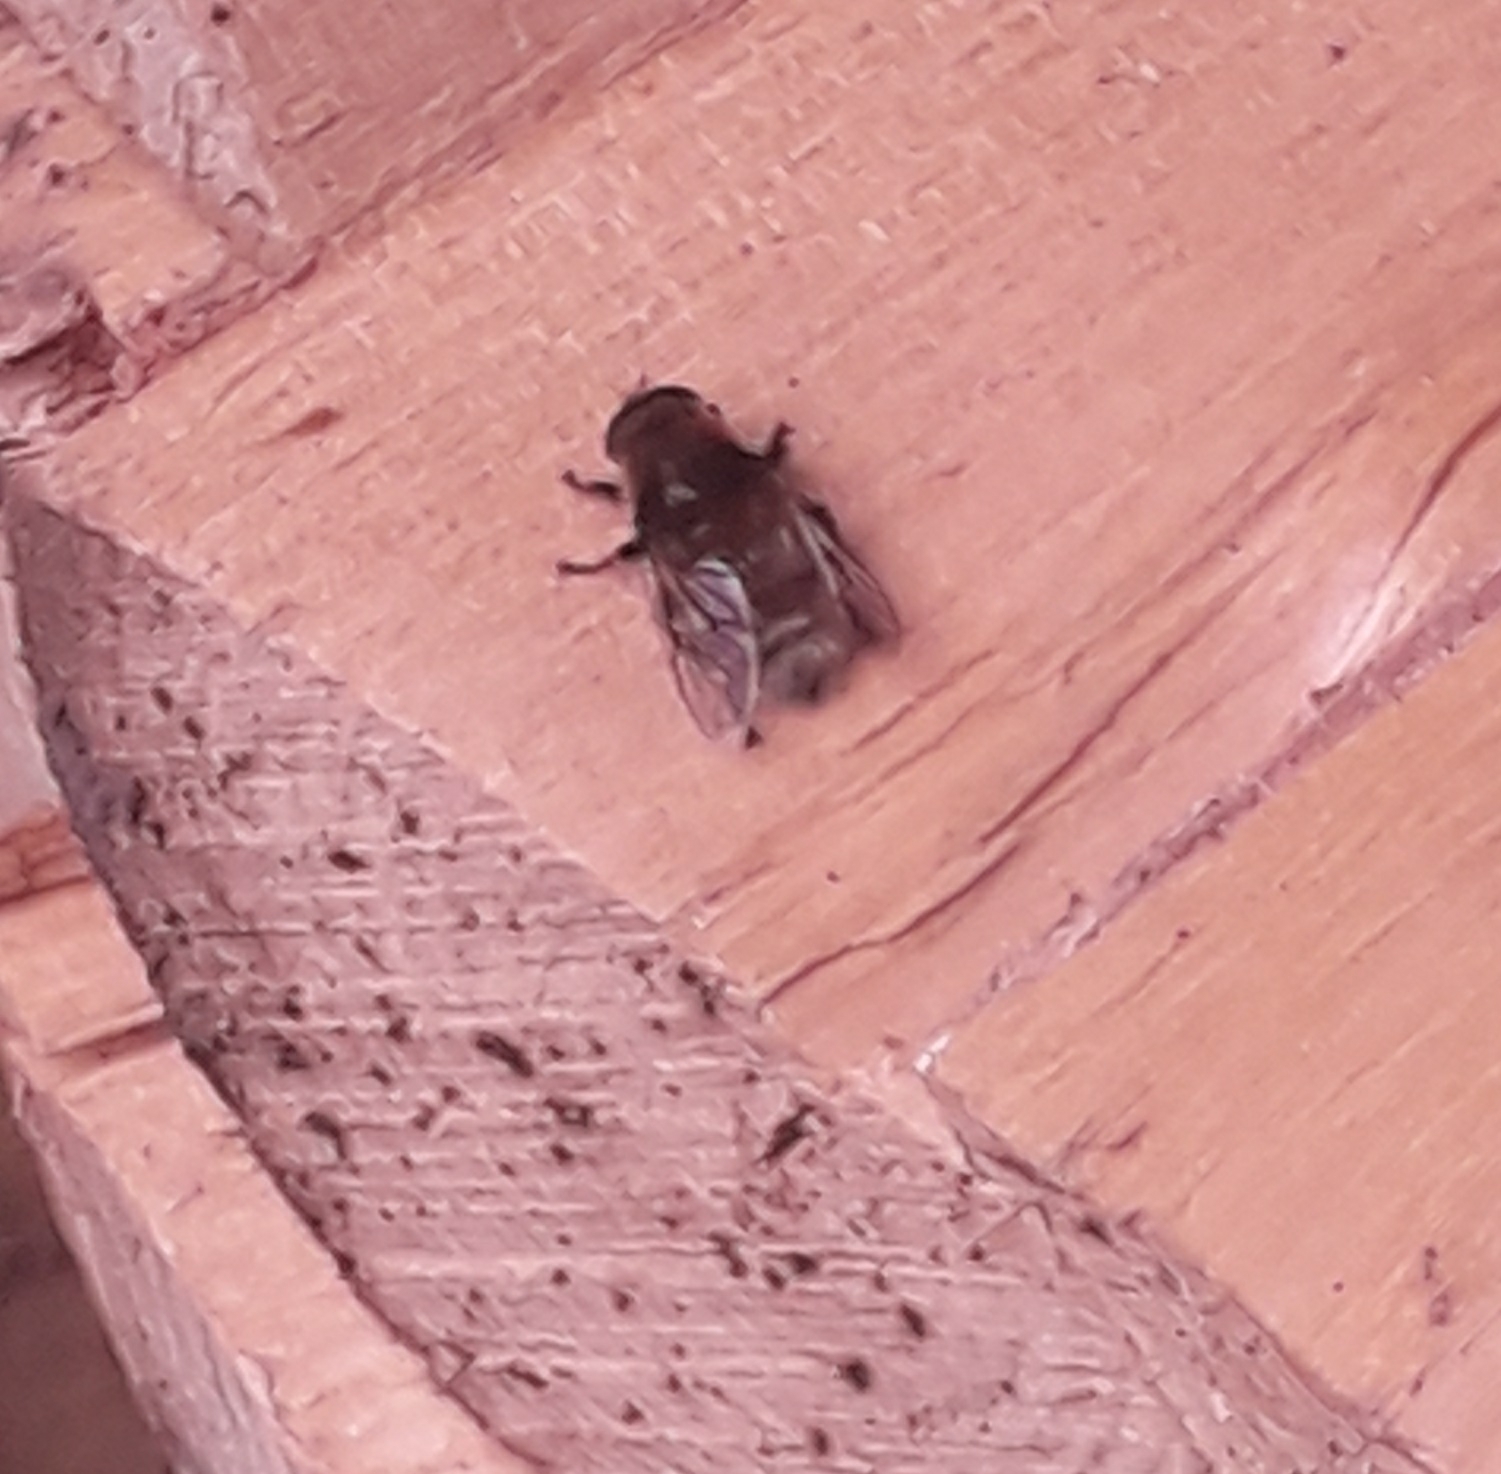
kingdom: Animalia
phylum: Arthropoda
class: Insecta
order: Diptera
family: Syrphidae
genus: Merodon
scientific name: Merodon equestris
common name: Greater bulb-fly
